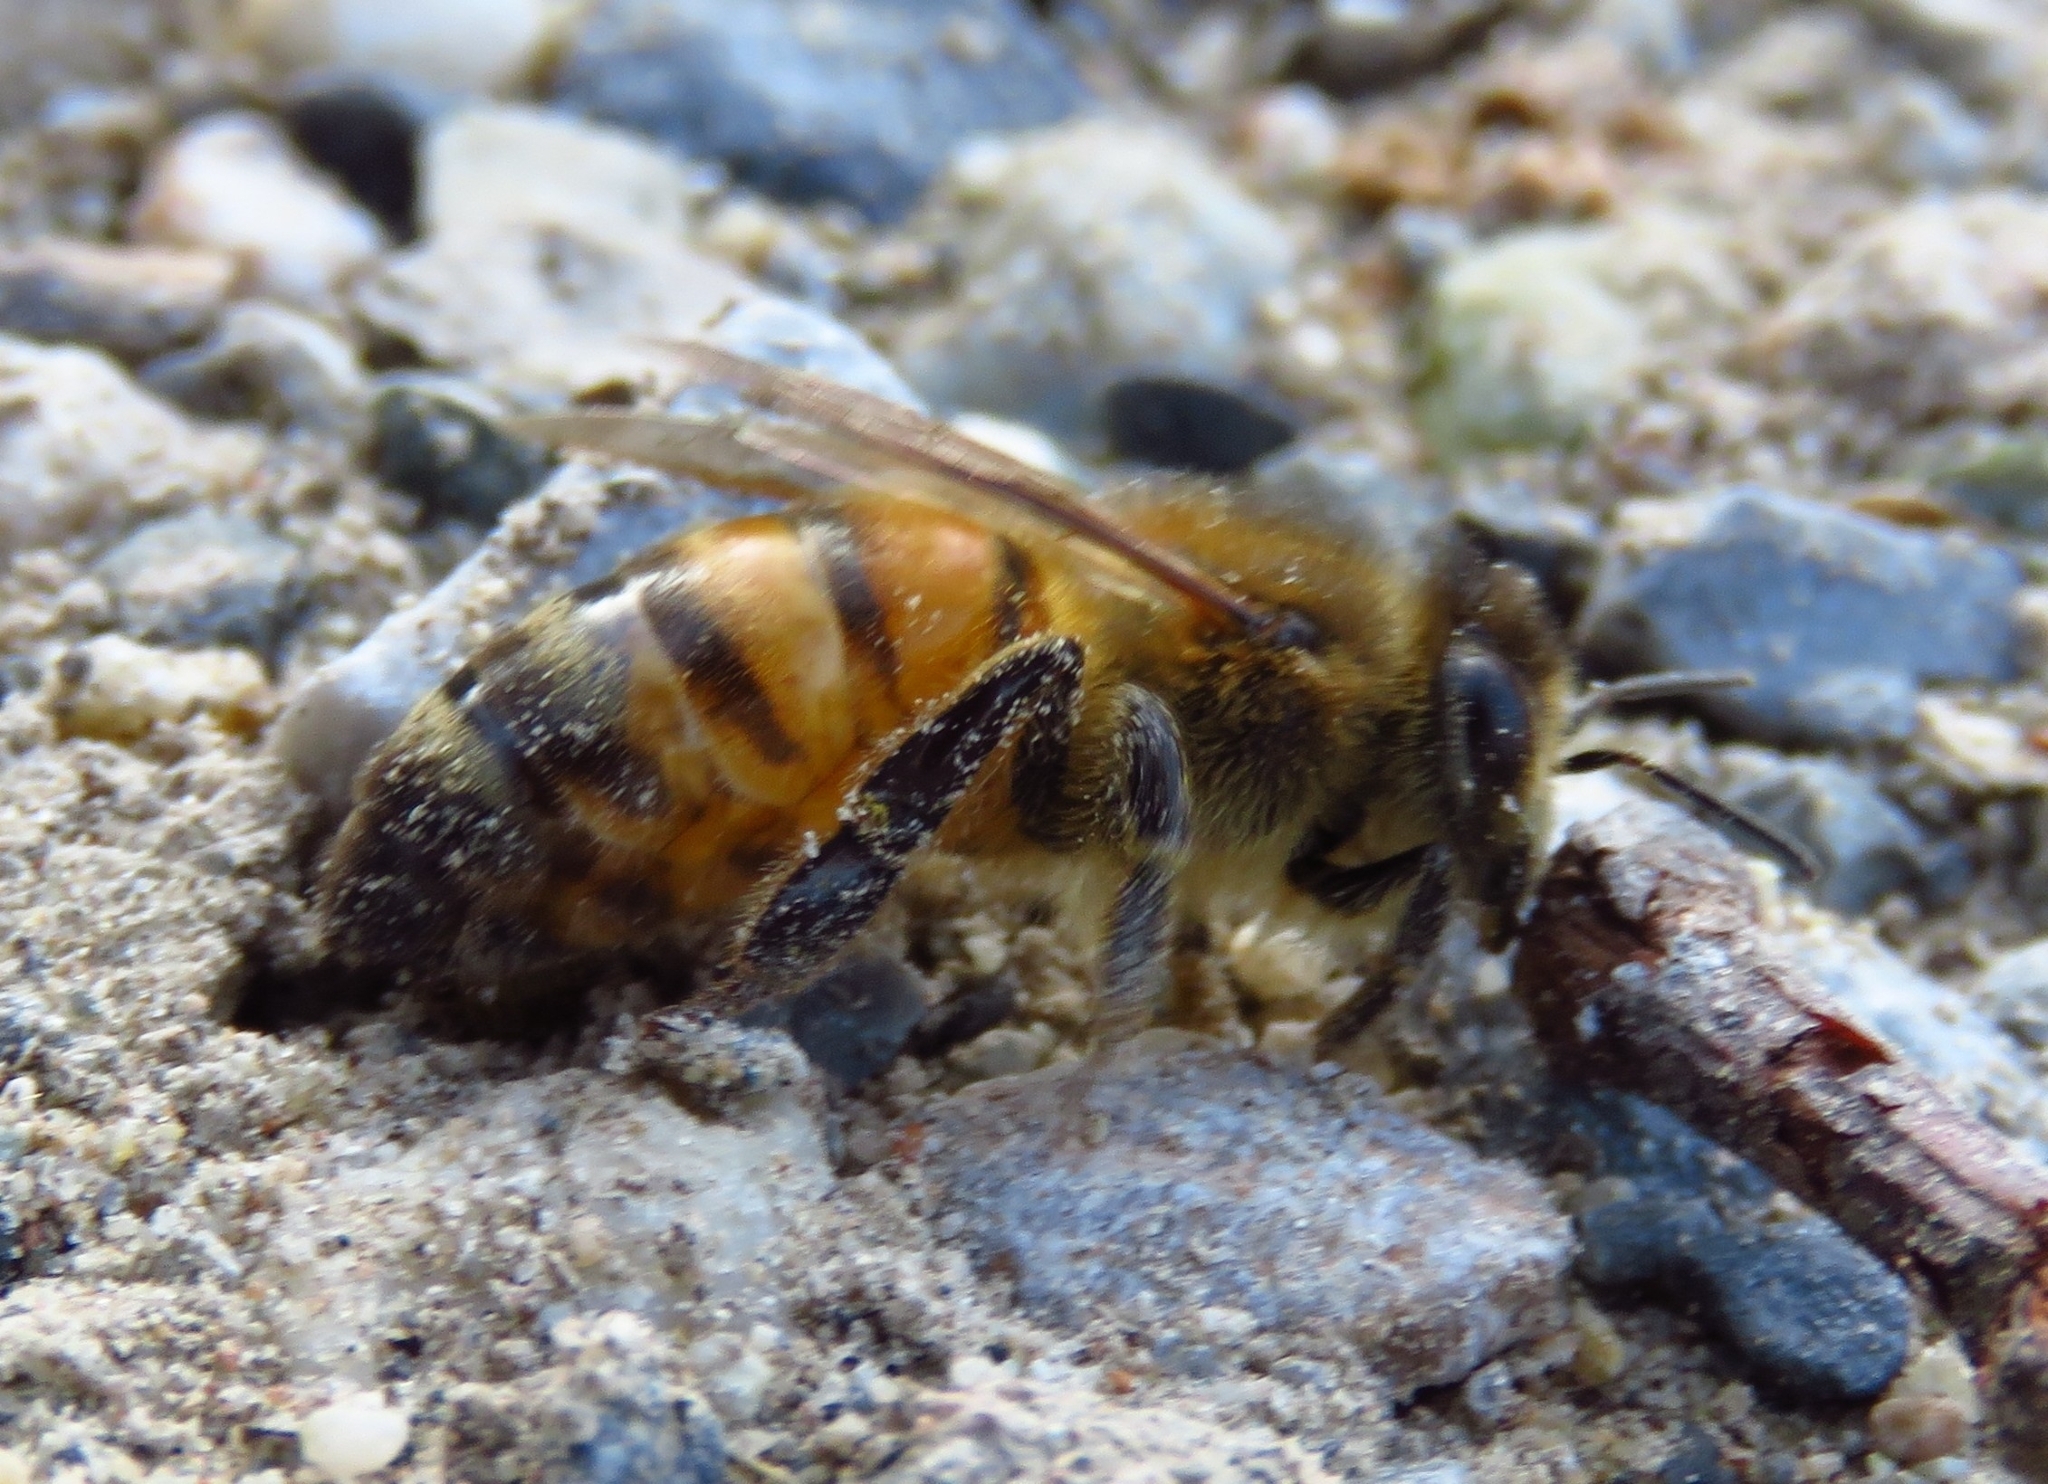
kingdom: Animalia
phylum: Arthropoda
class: Insecta
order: Hymenoptera
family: Apidae
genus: Apis
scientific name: Apis mellifera
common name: Honey bee
